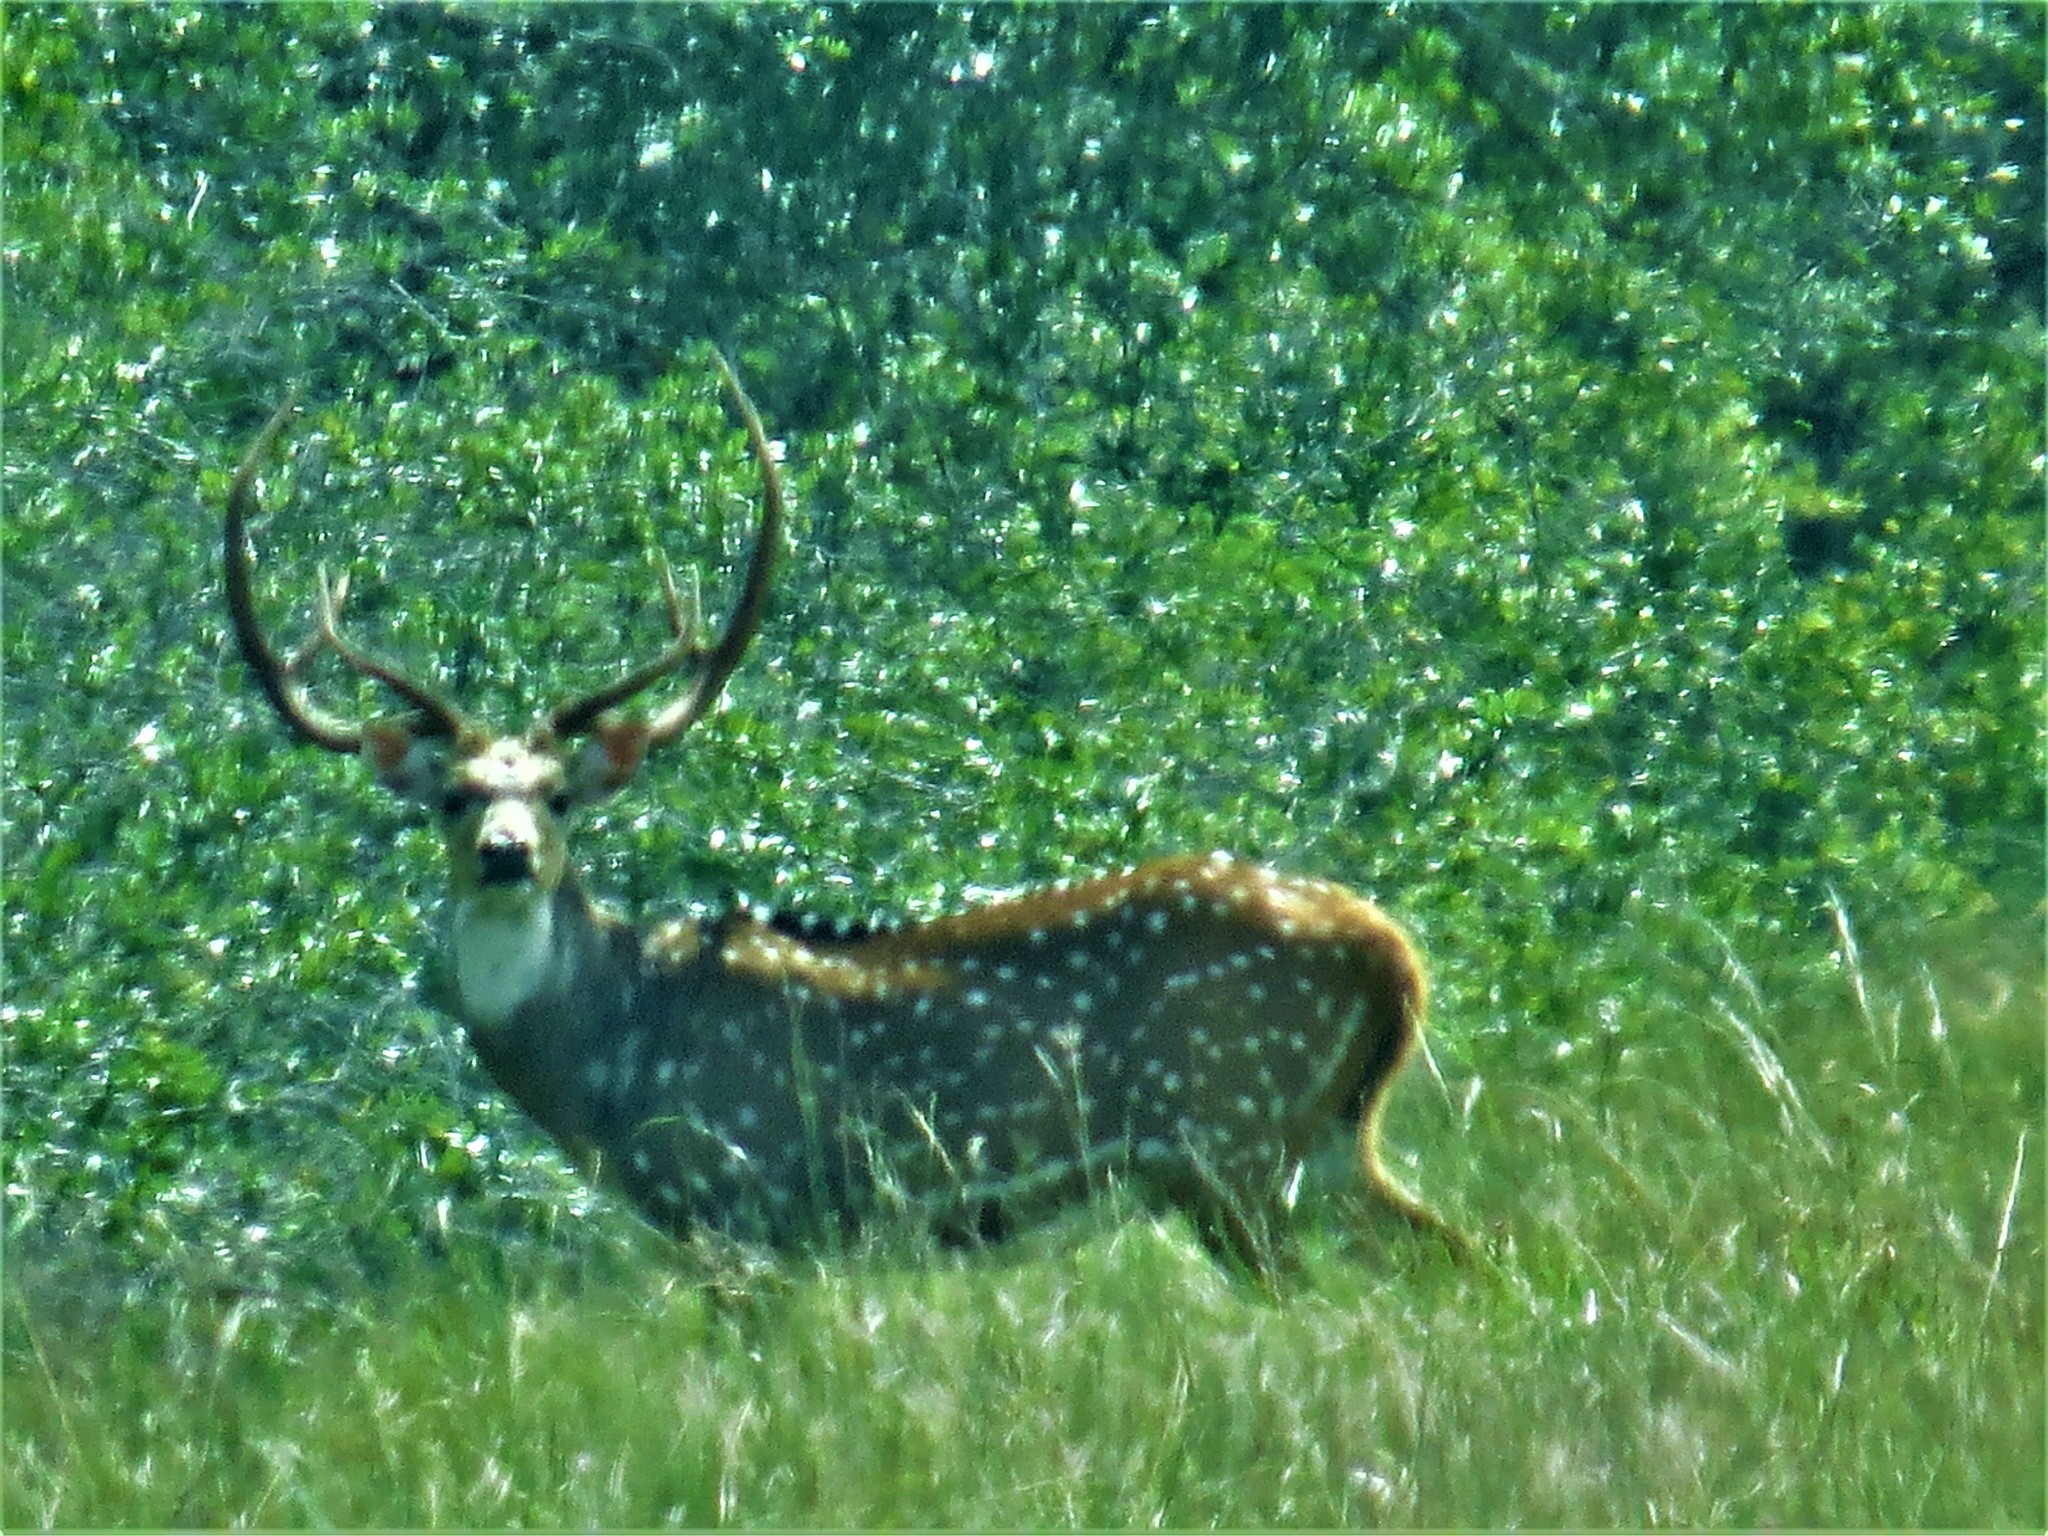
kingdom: Animalia
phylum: Chordata
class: Mammalia
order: Artiodactyla
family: Cervidae
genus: Axis
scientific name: Axis axis
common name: Chital
